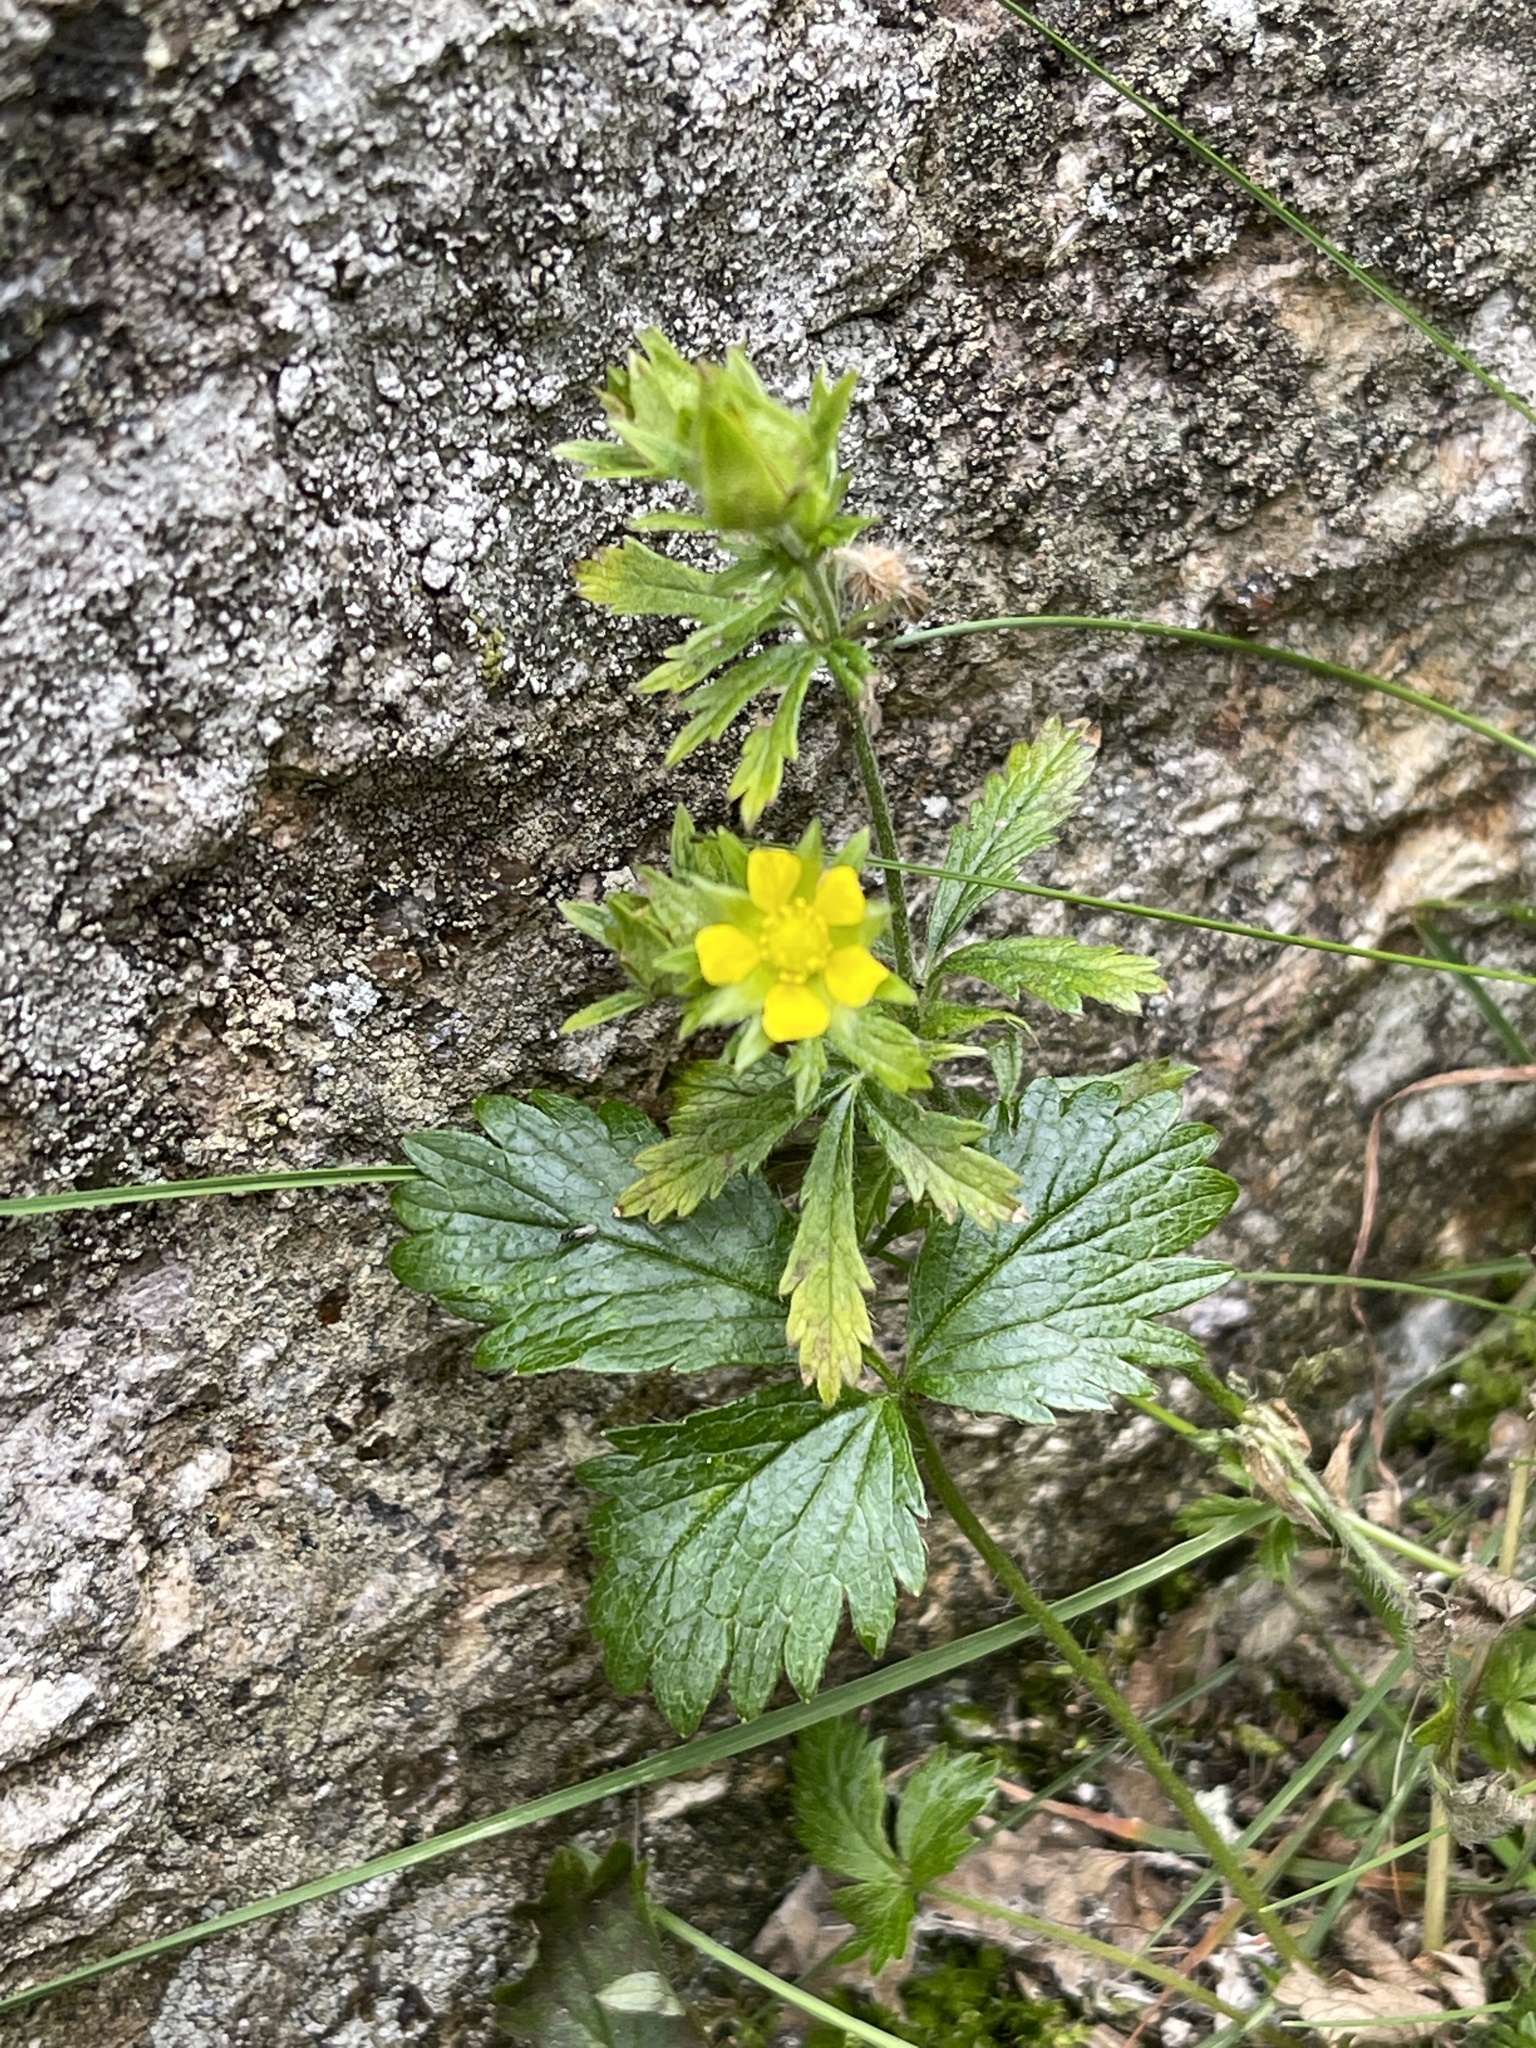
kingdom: Plantae
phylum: Tracheophyta
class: Magnoliopsida
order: Rosales
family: Rosaceae
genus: Potentilla
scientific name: Potentilla norvegica
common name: Ternate-leaved cinquefoil
